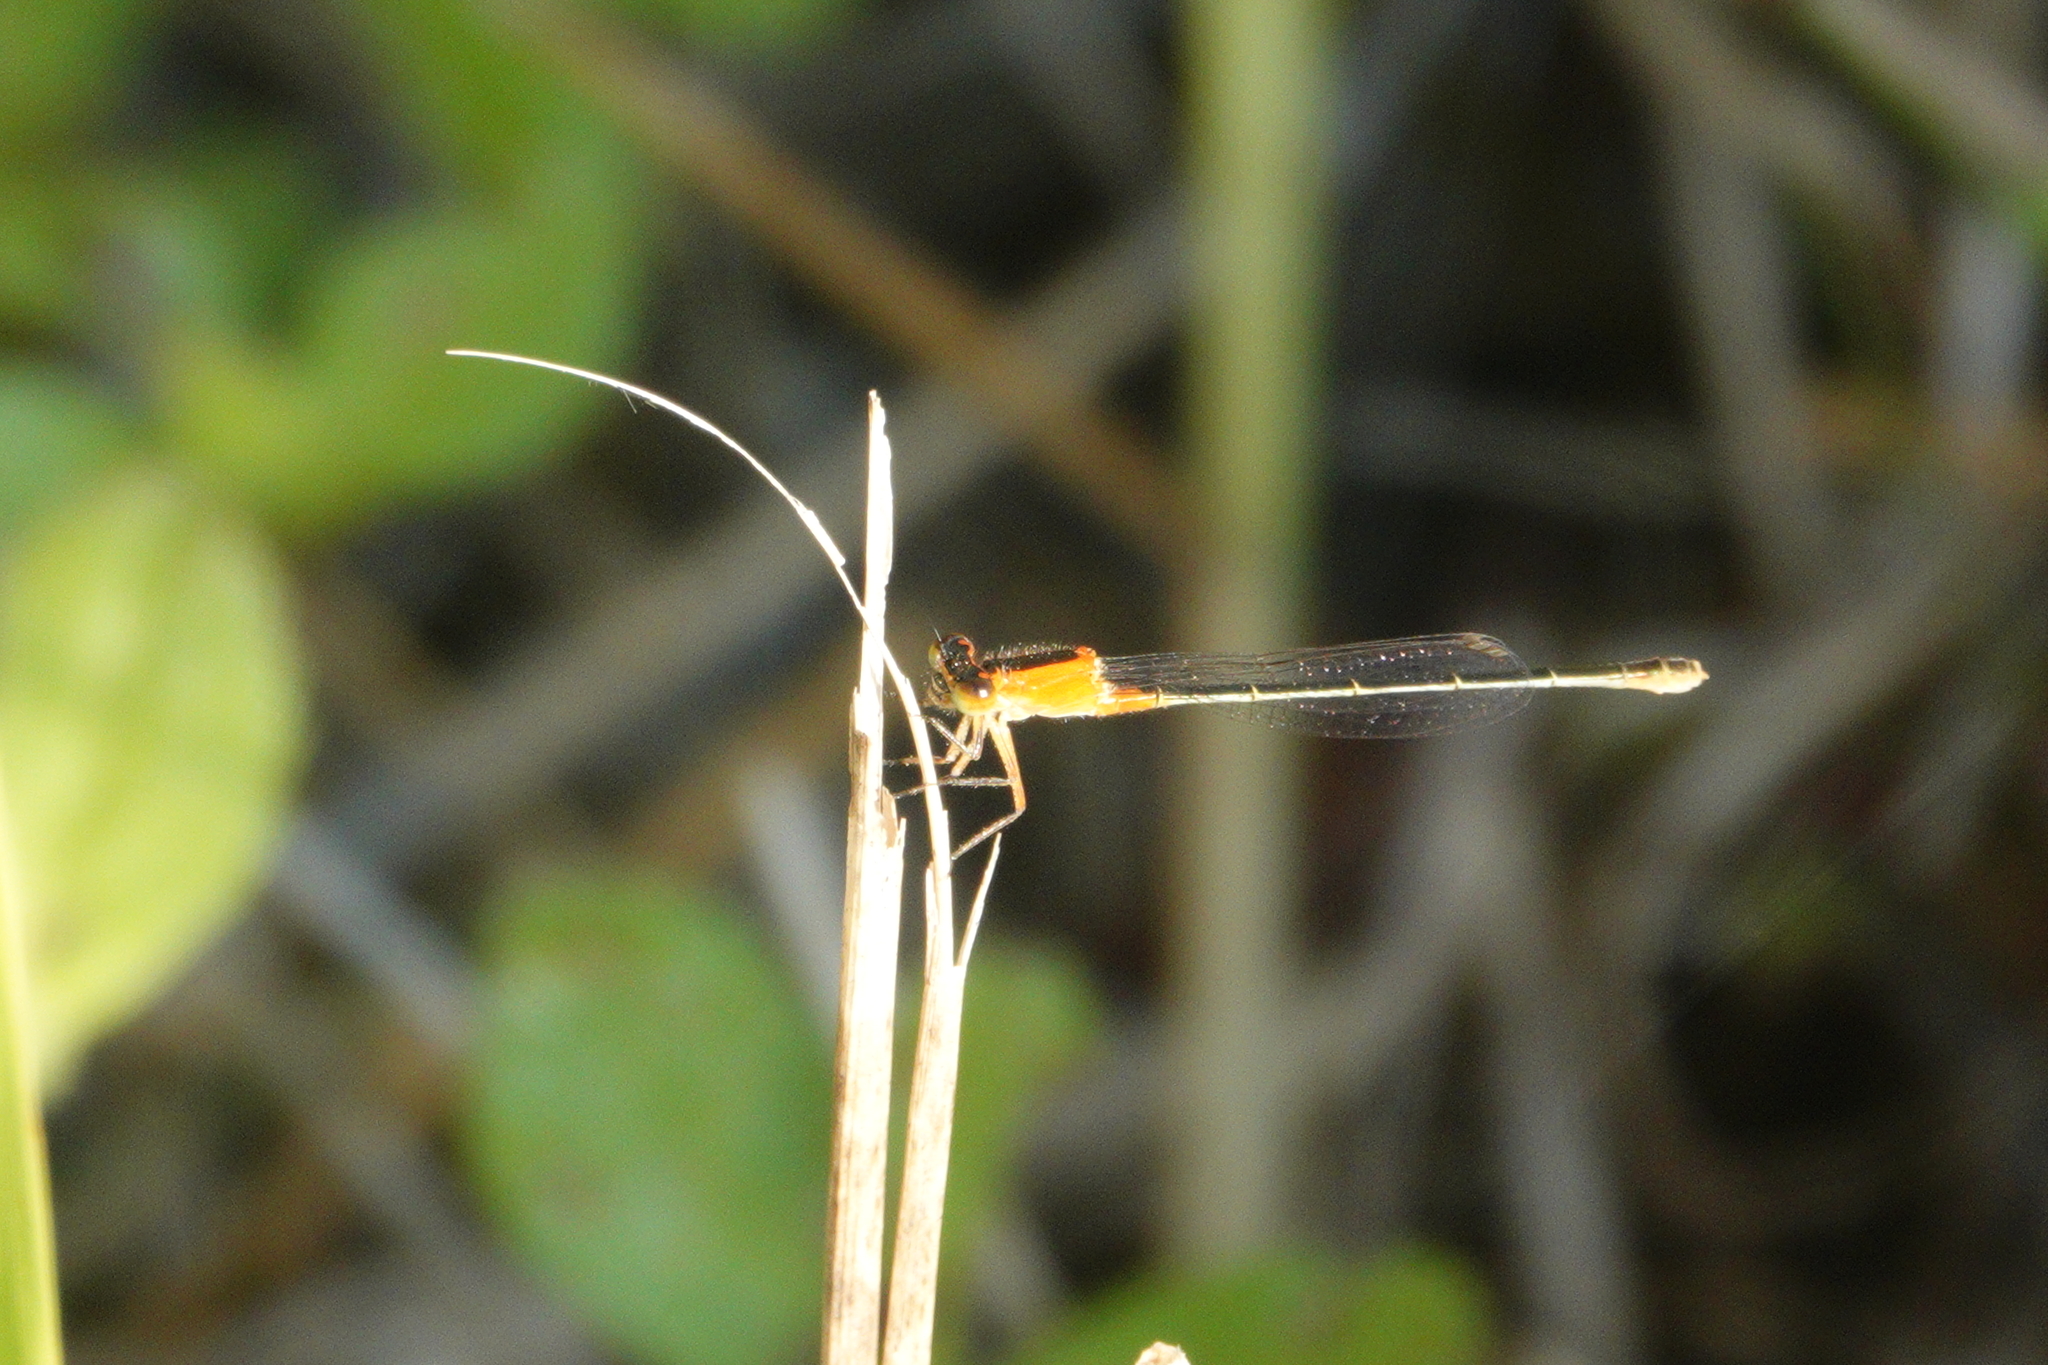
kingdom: Animalia
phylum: Arthropoda
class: Insecta
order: Odonata
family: Coenagrionidae
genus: Ischnura
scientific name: Ischnura ramburii
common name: Rambur's forktail
